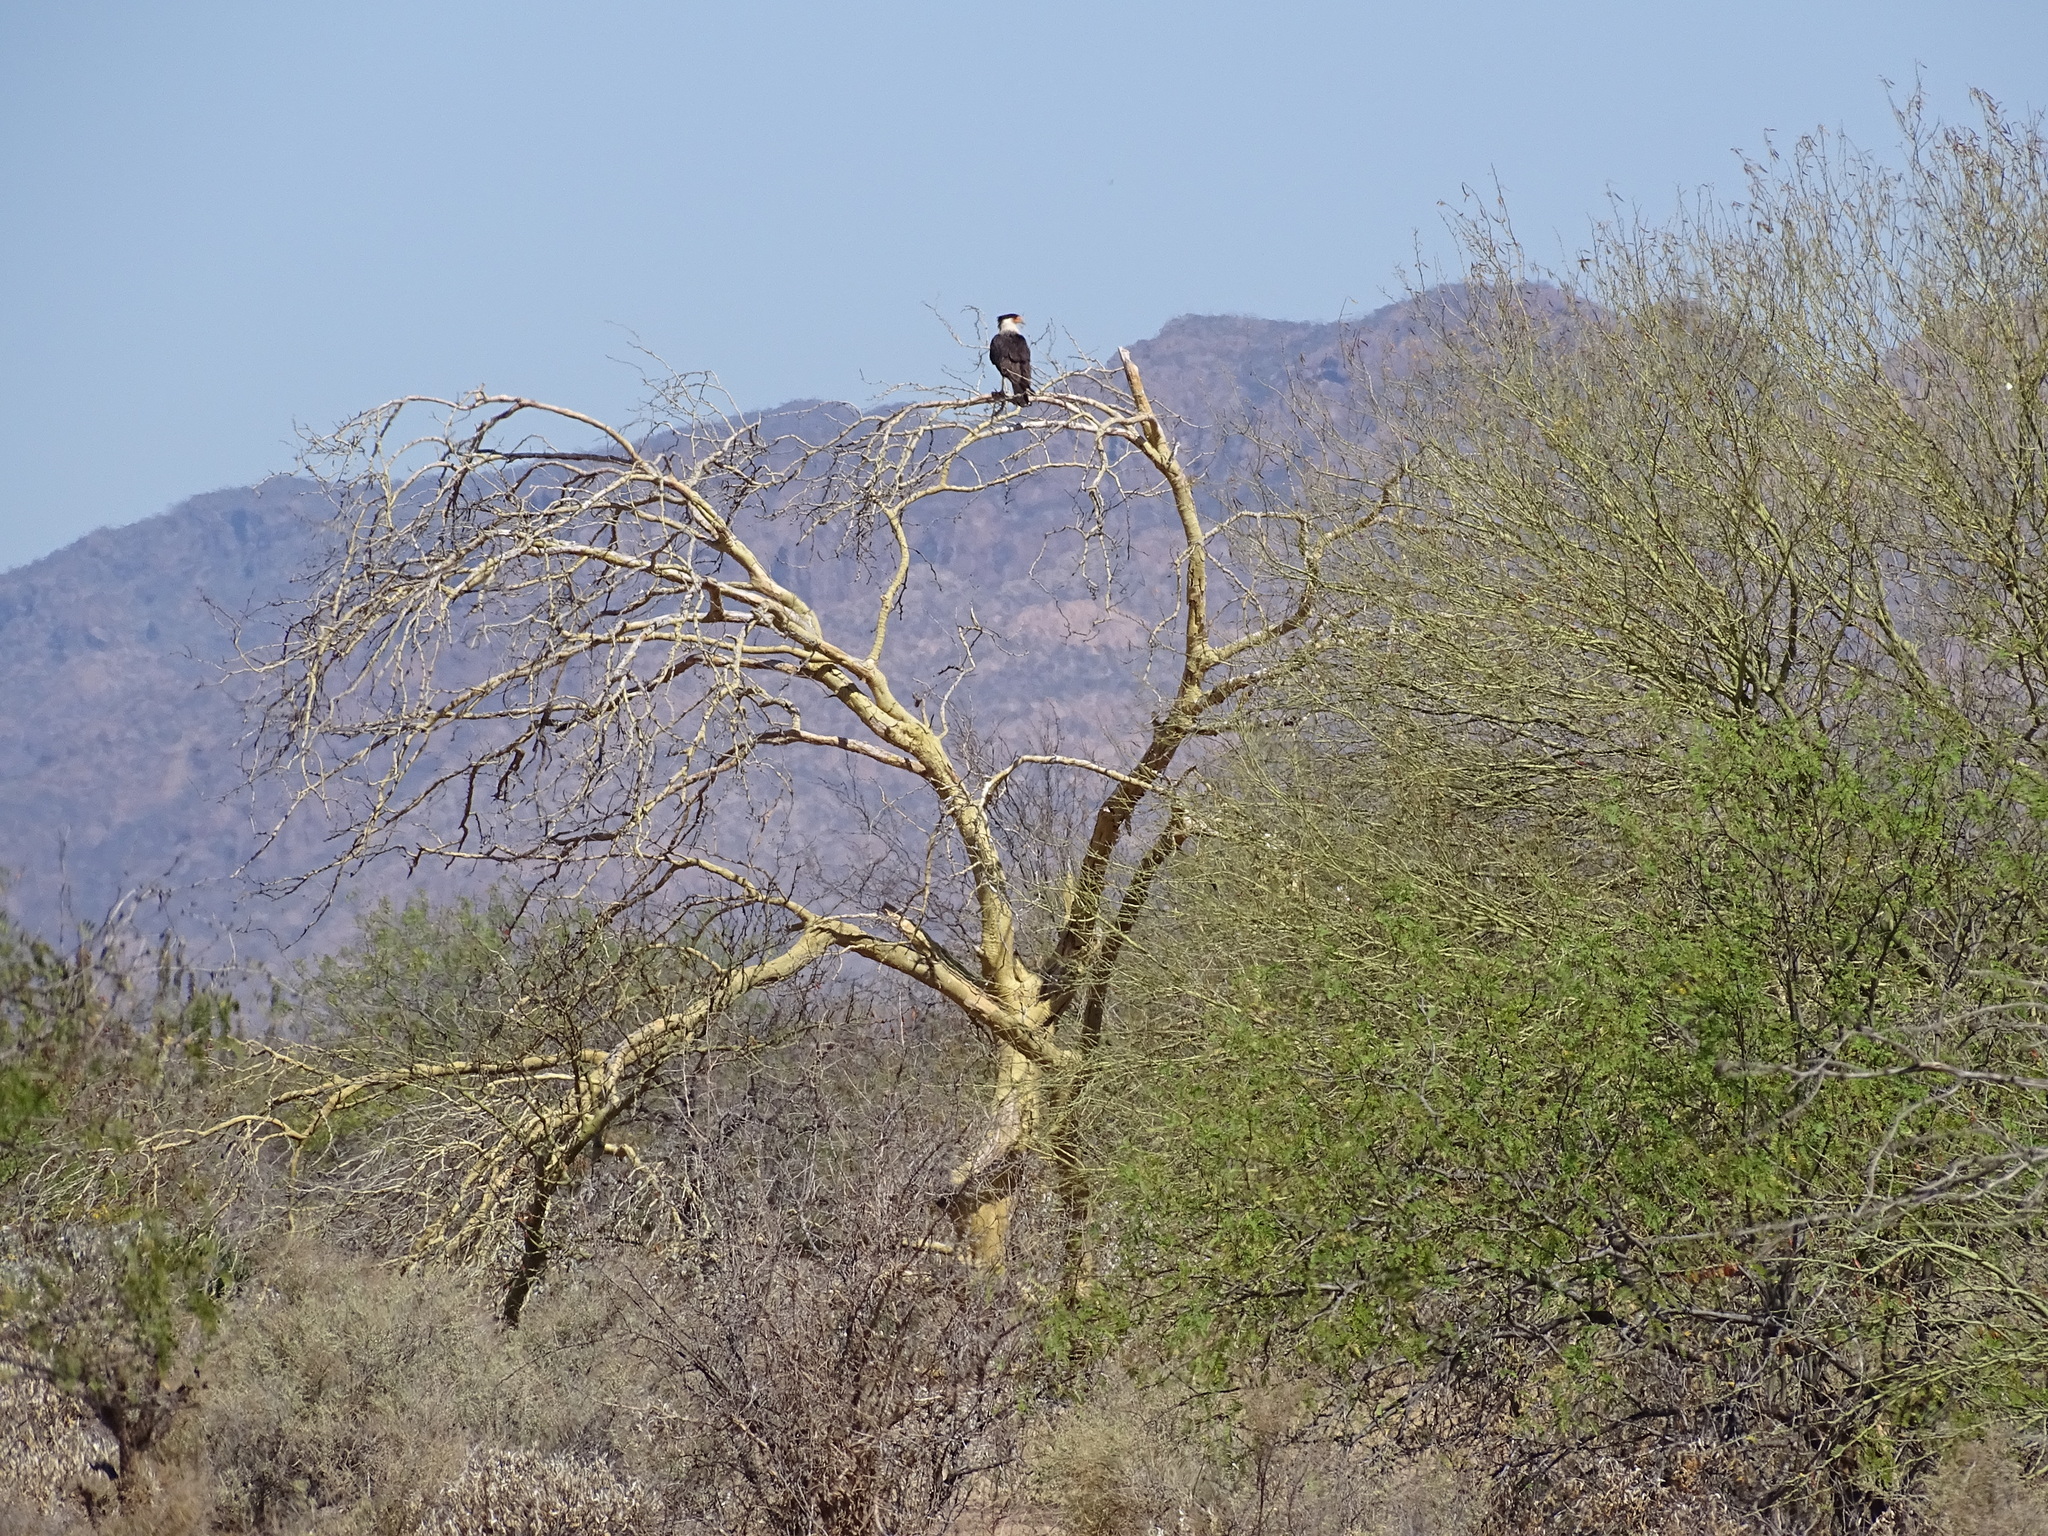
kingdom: Animalia
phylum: Chordata
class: Aves
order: Falconiformes
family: Falconidae
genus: Caracara
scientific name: Caracara plancus
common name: Southern caracara
